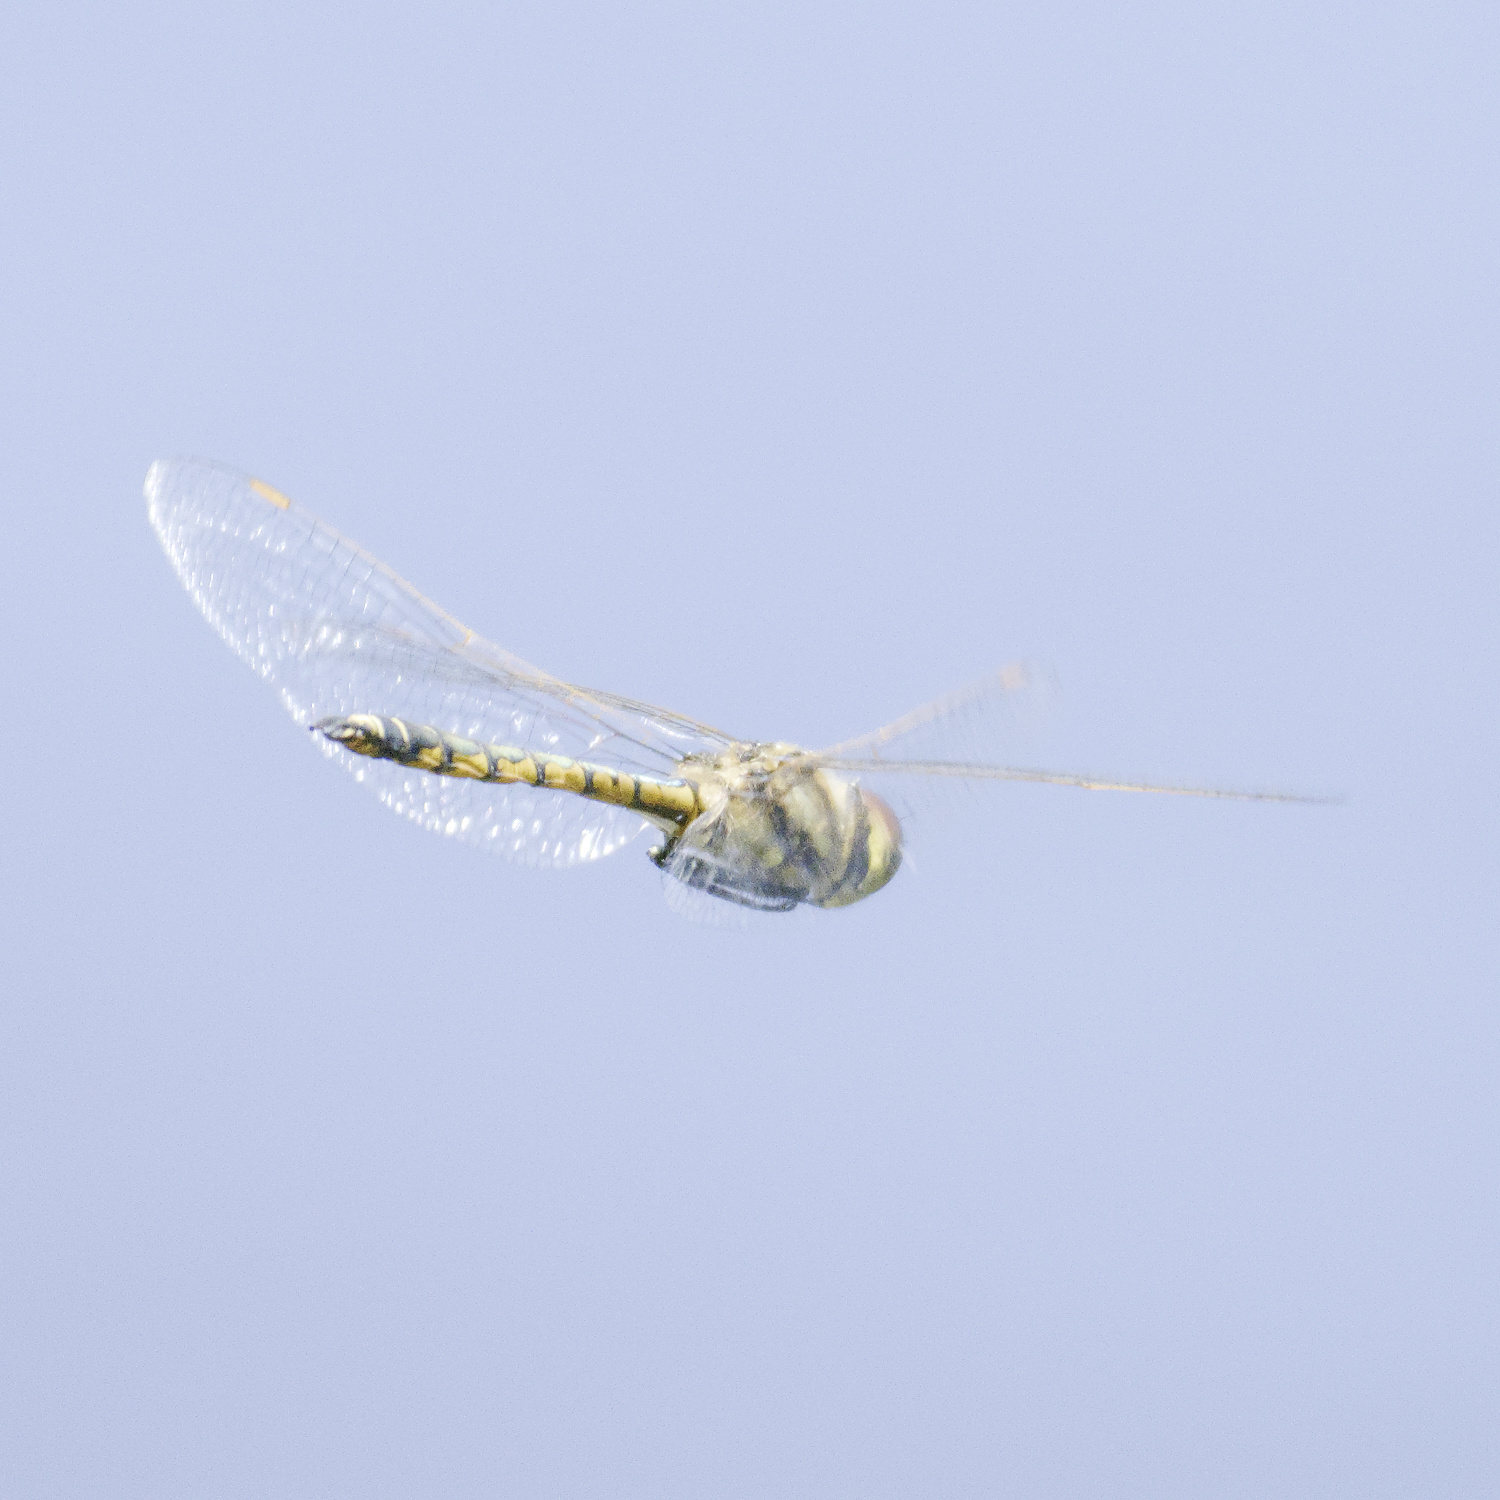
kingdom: Animalia
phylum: Arthropoda
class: Insecta
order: Odonata
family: Corduliidae
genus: Hemicordulia
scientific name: Hemicordulia tau
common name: Tau emerald
